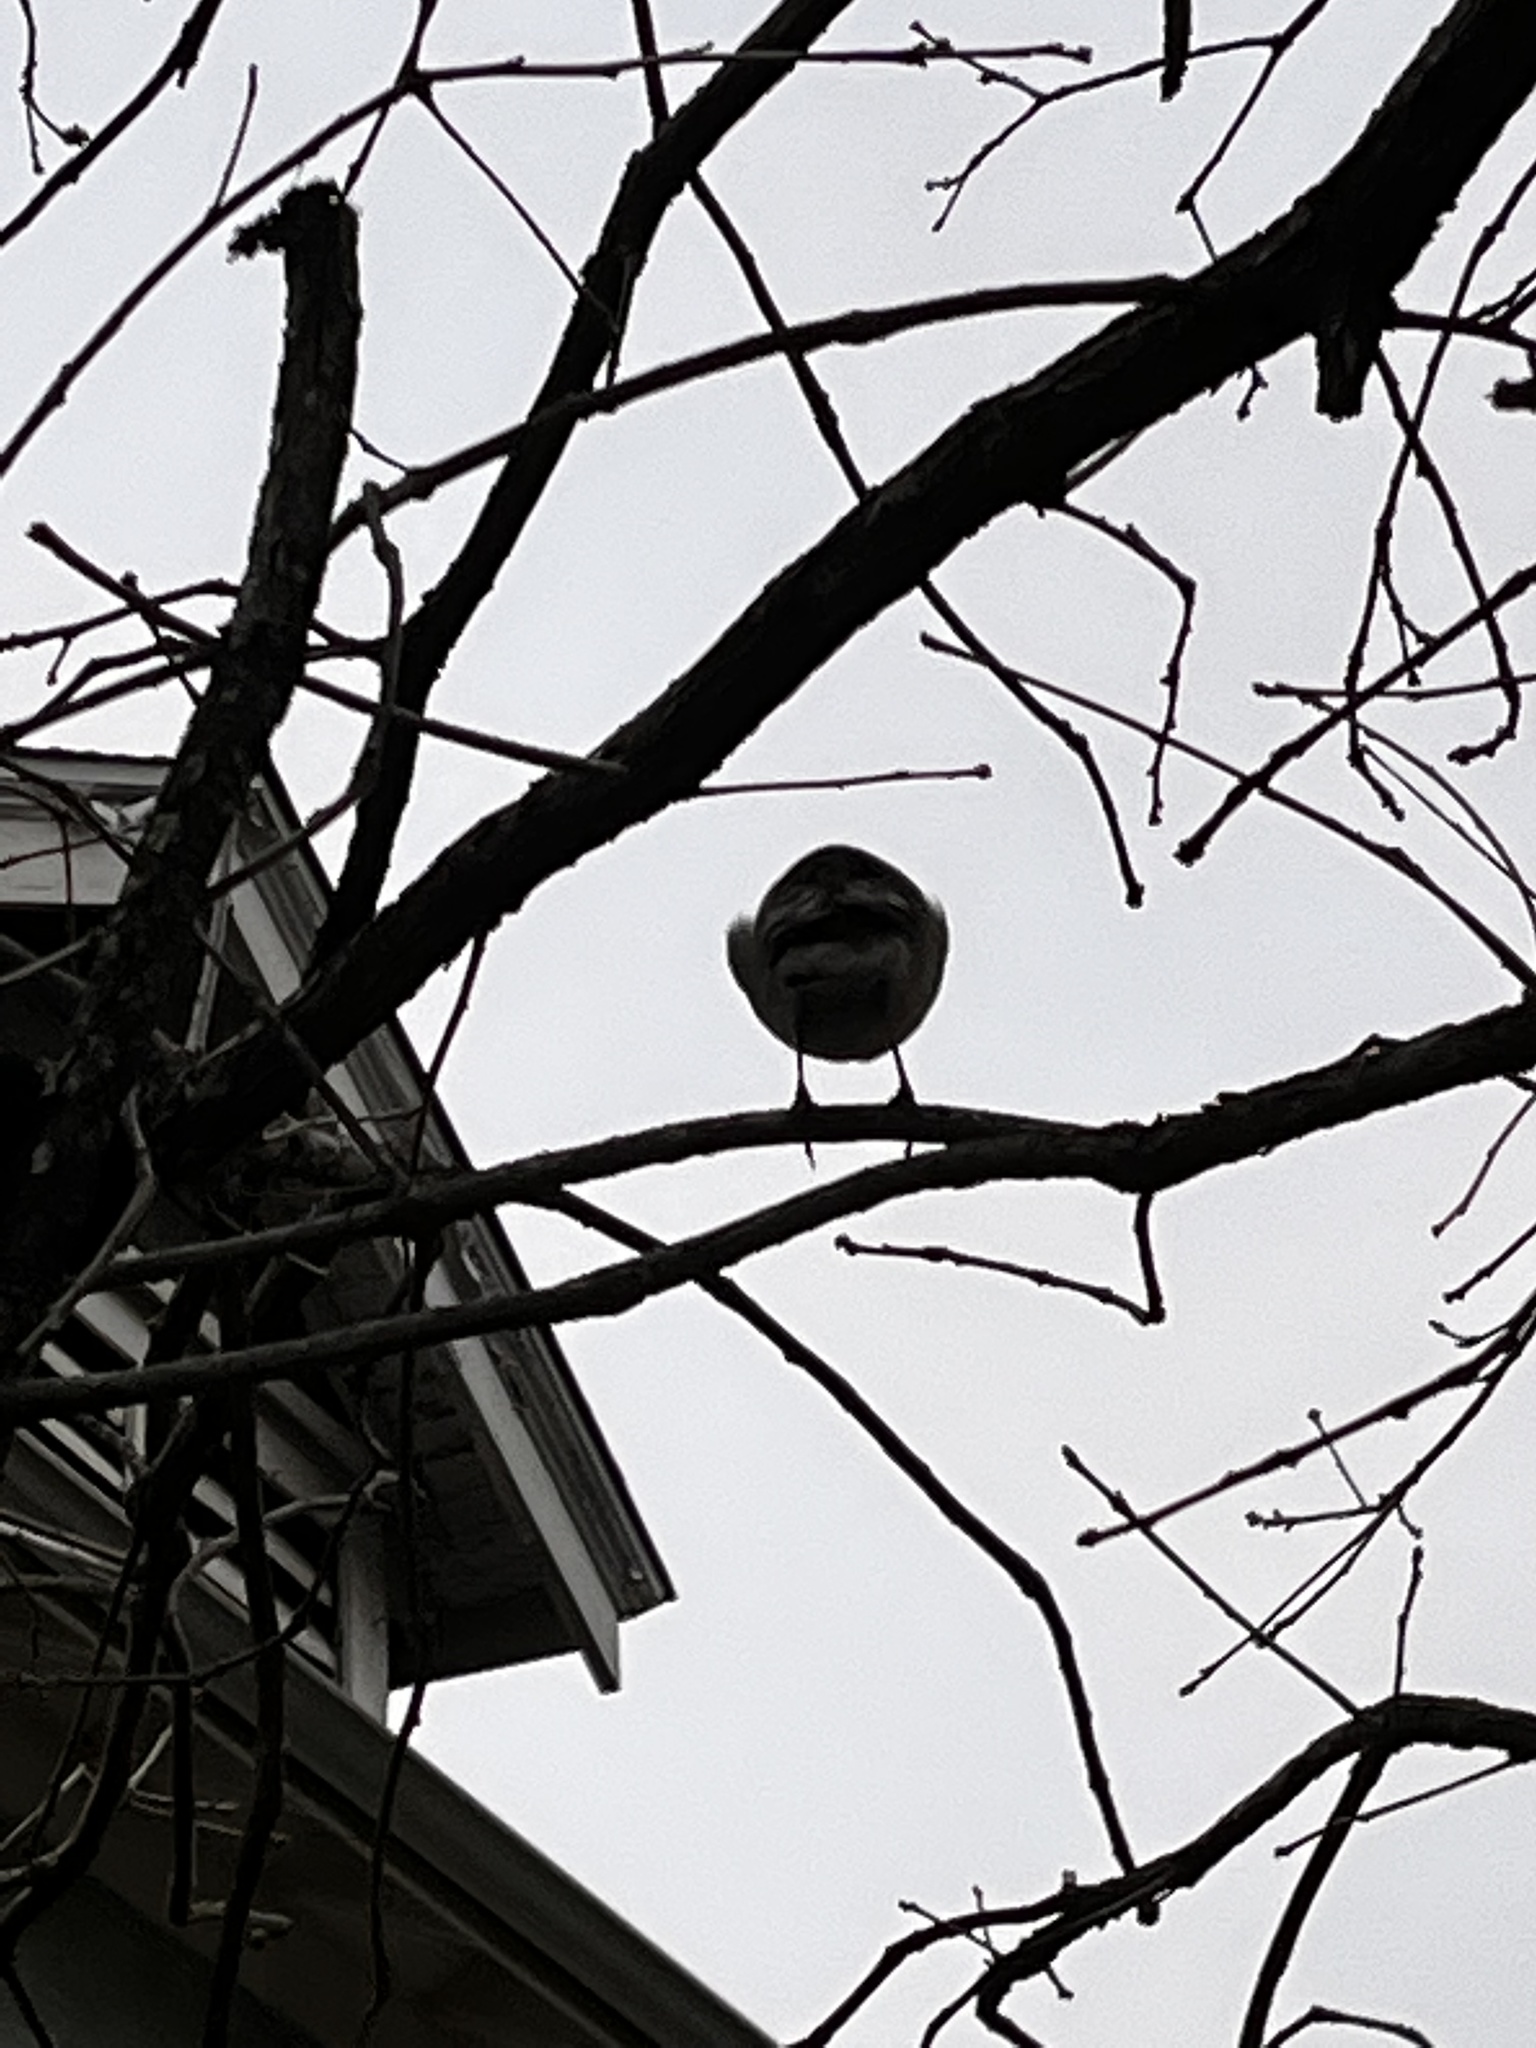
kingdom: Animalia
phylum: Chordata
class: Aves
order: Passeriformes
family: Mimidae
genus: Mimus
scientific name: Mimus polyglottos
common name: Northern mockingbird
